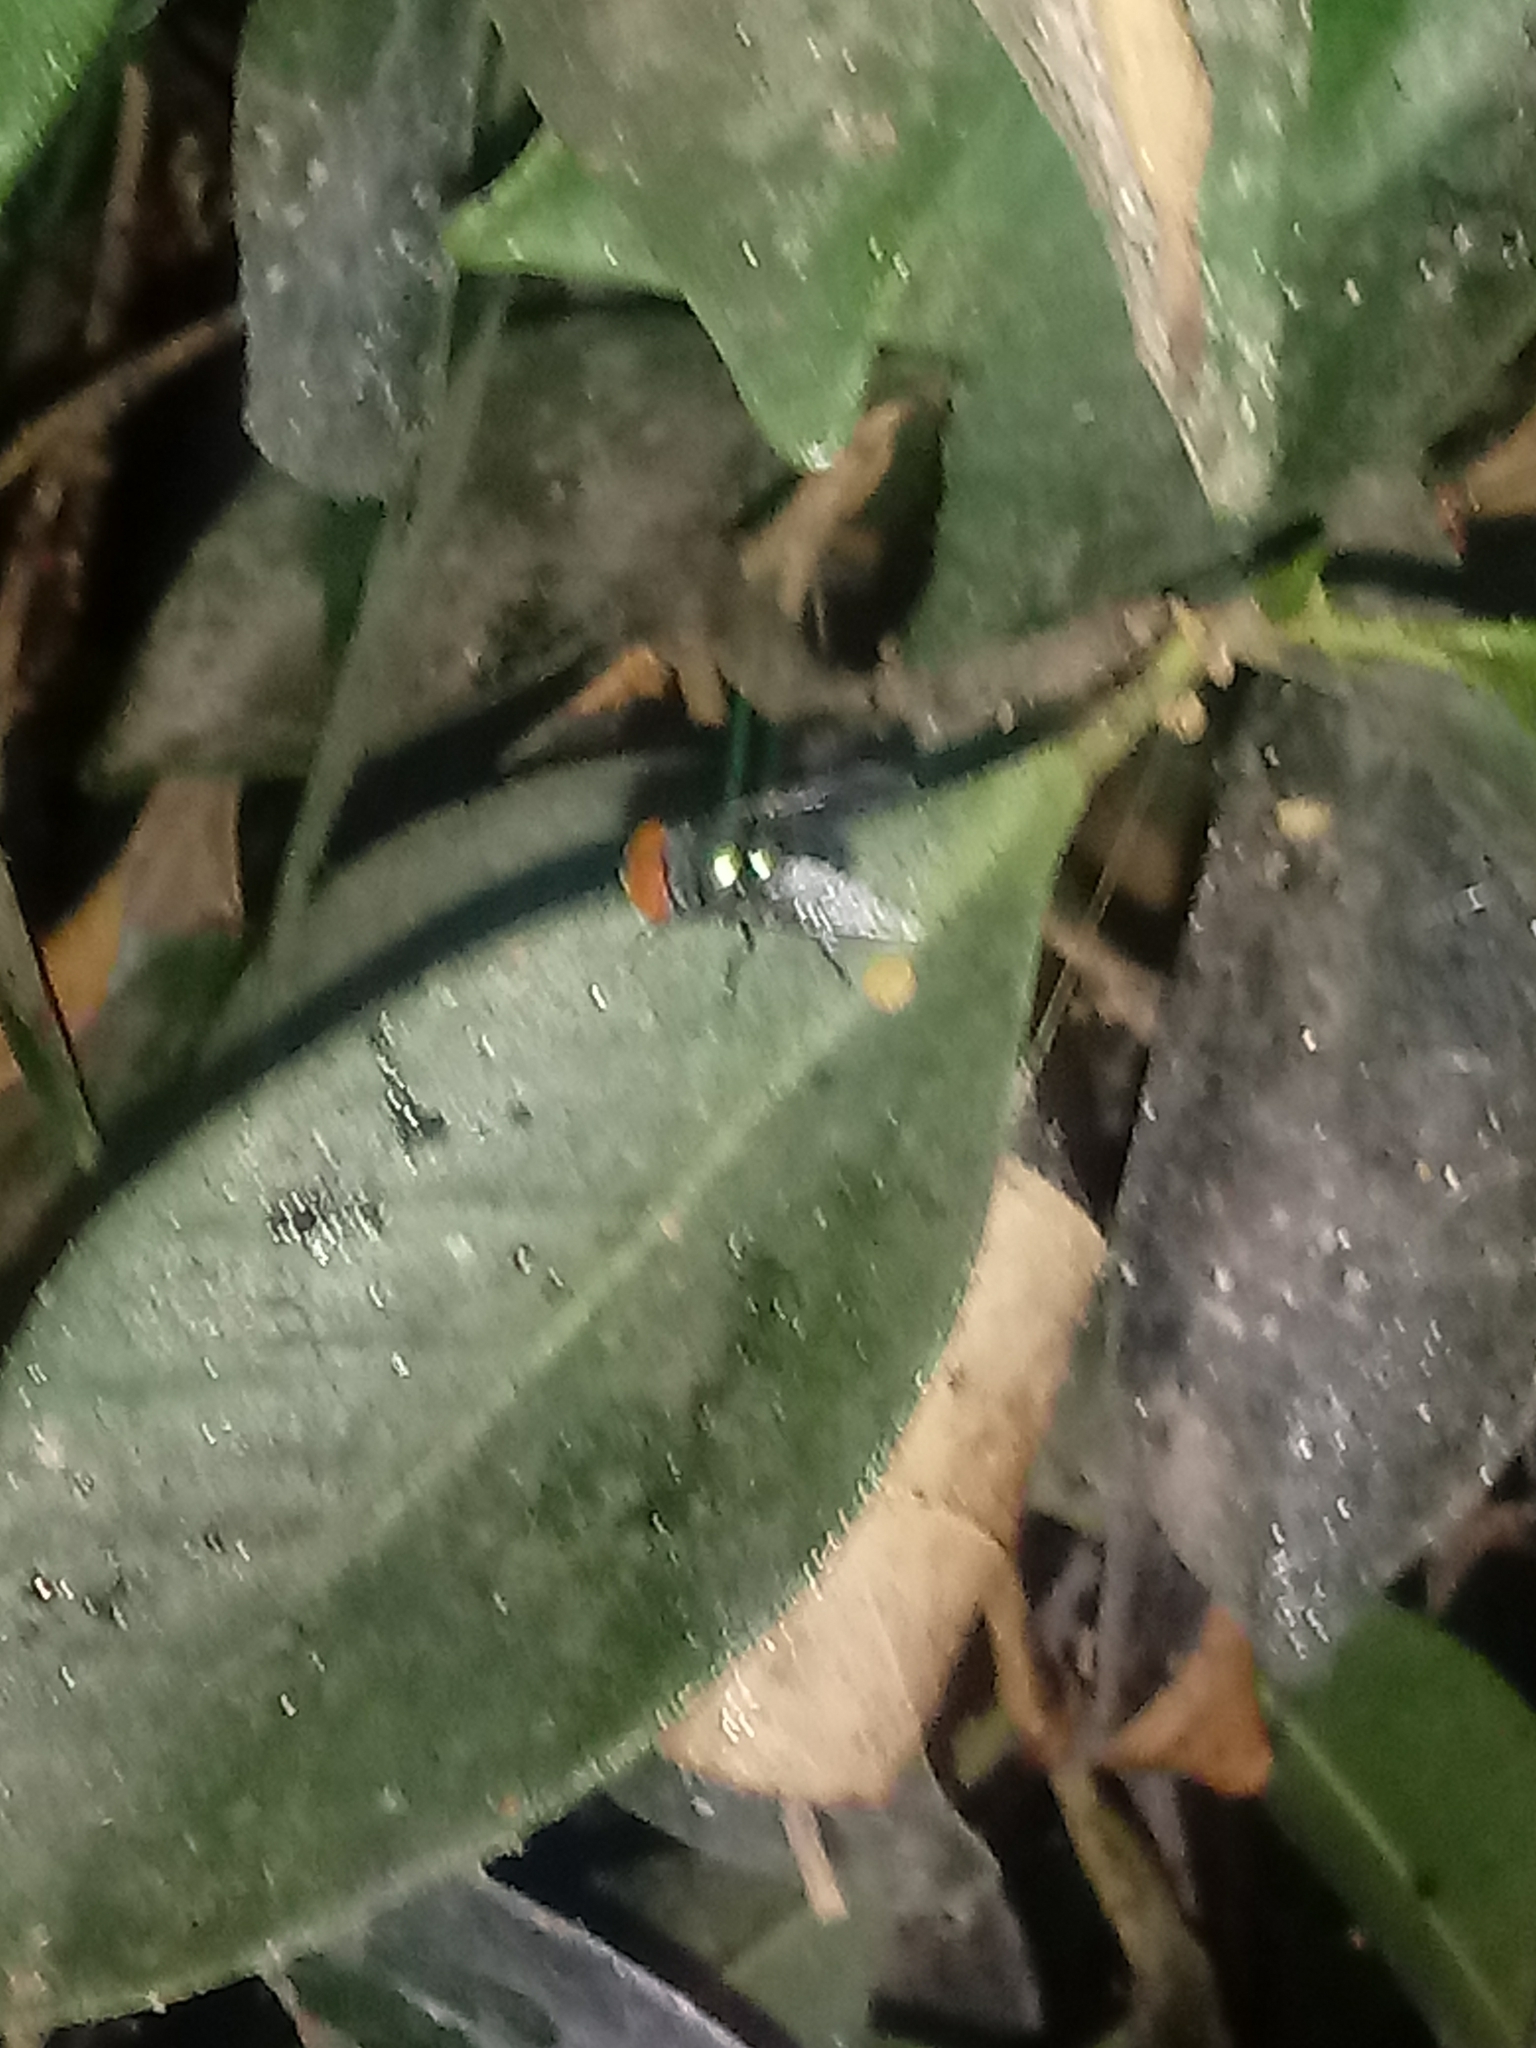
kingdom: Animalia
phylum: Arthropoda
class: Insecta
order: Diptera
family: Calliphoridae
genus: Chrysomya
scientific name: Chrysomya megacephala
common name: Blow fly
